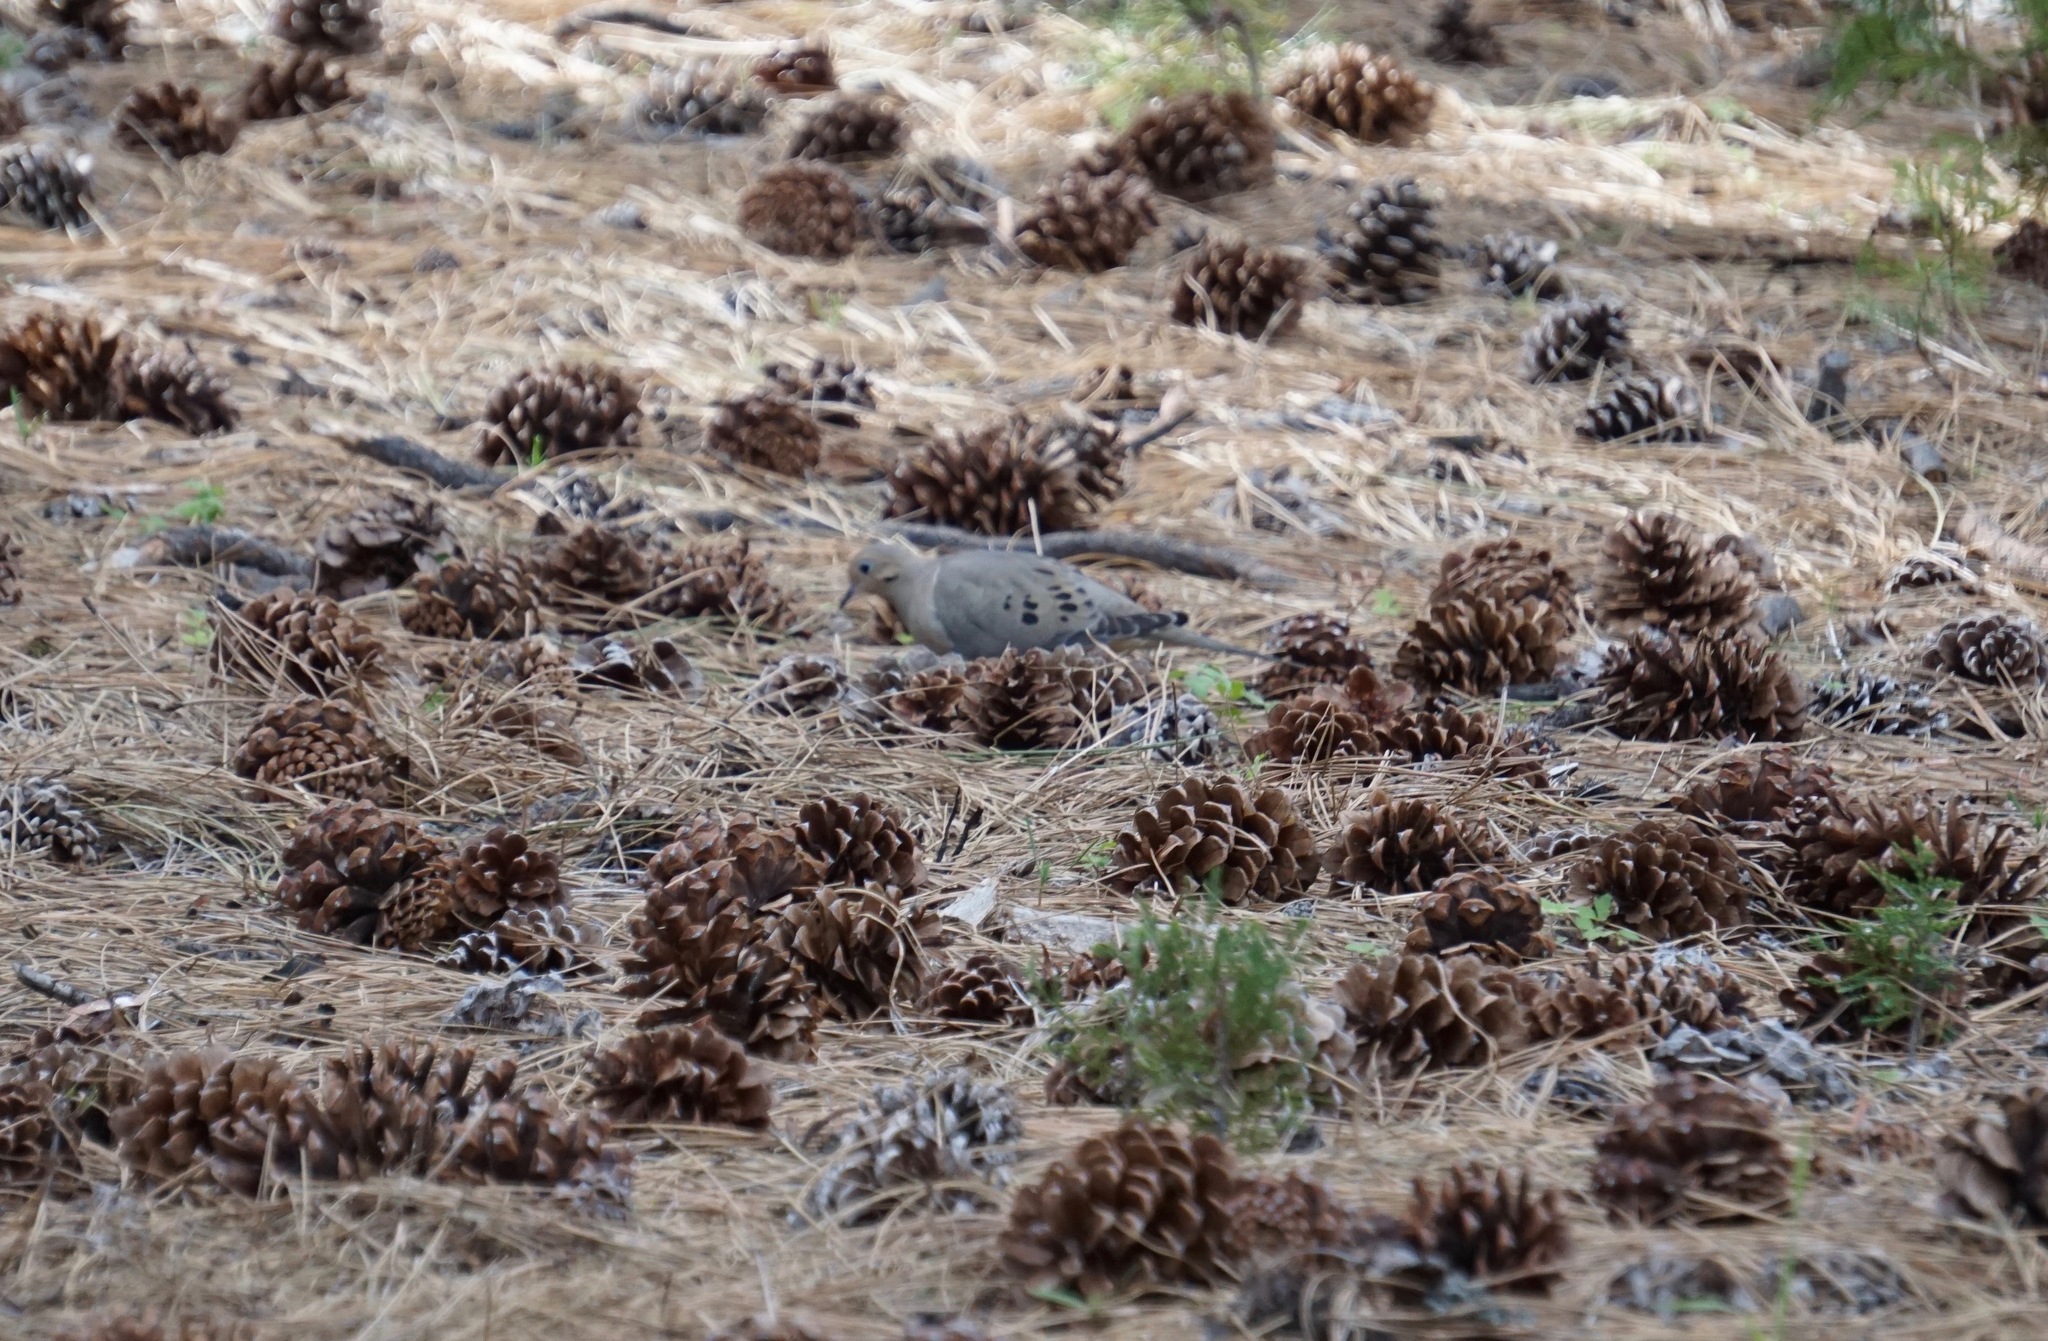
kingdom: Animalia
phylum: Chordata
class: Aves
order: Columbiformes
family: Columbidae
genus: Zenaida
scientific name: Zenaida macroura
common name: Mourning dove
